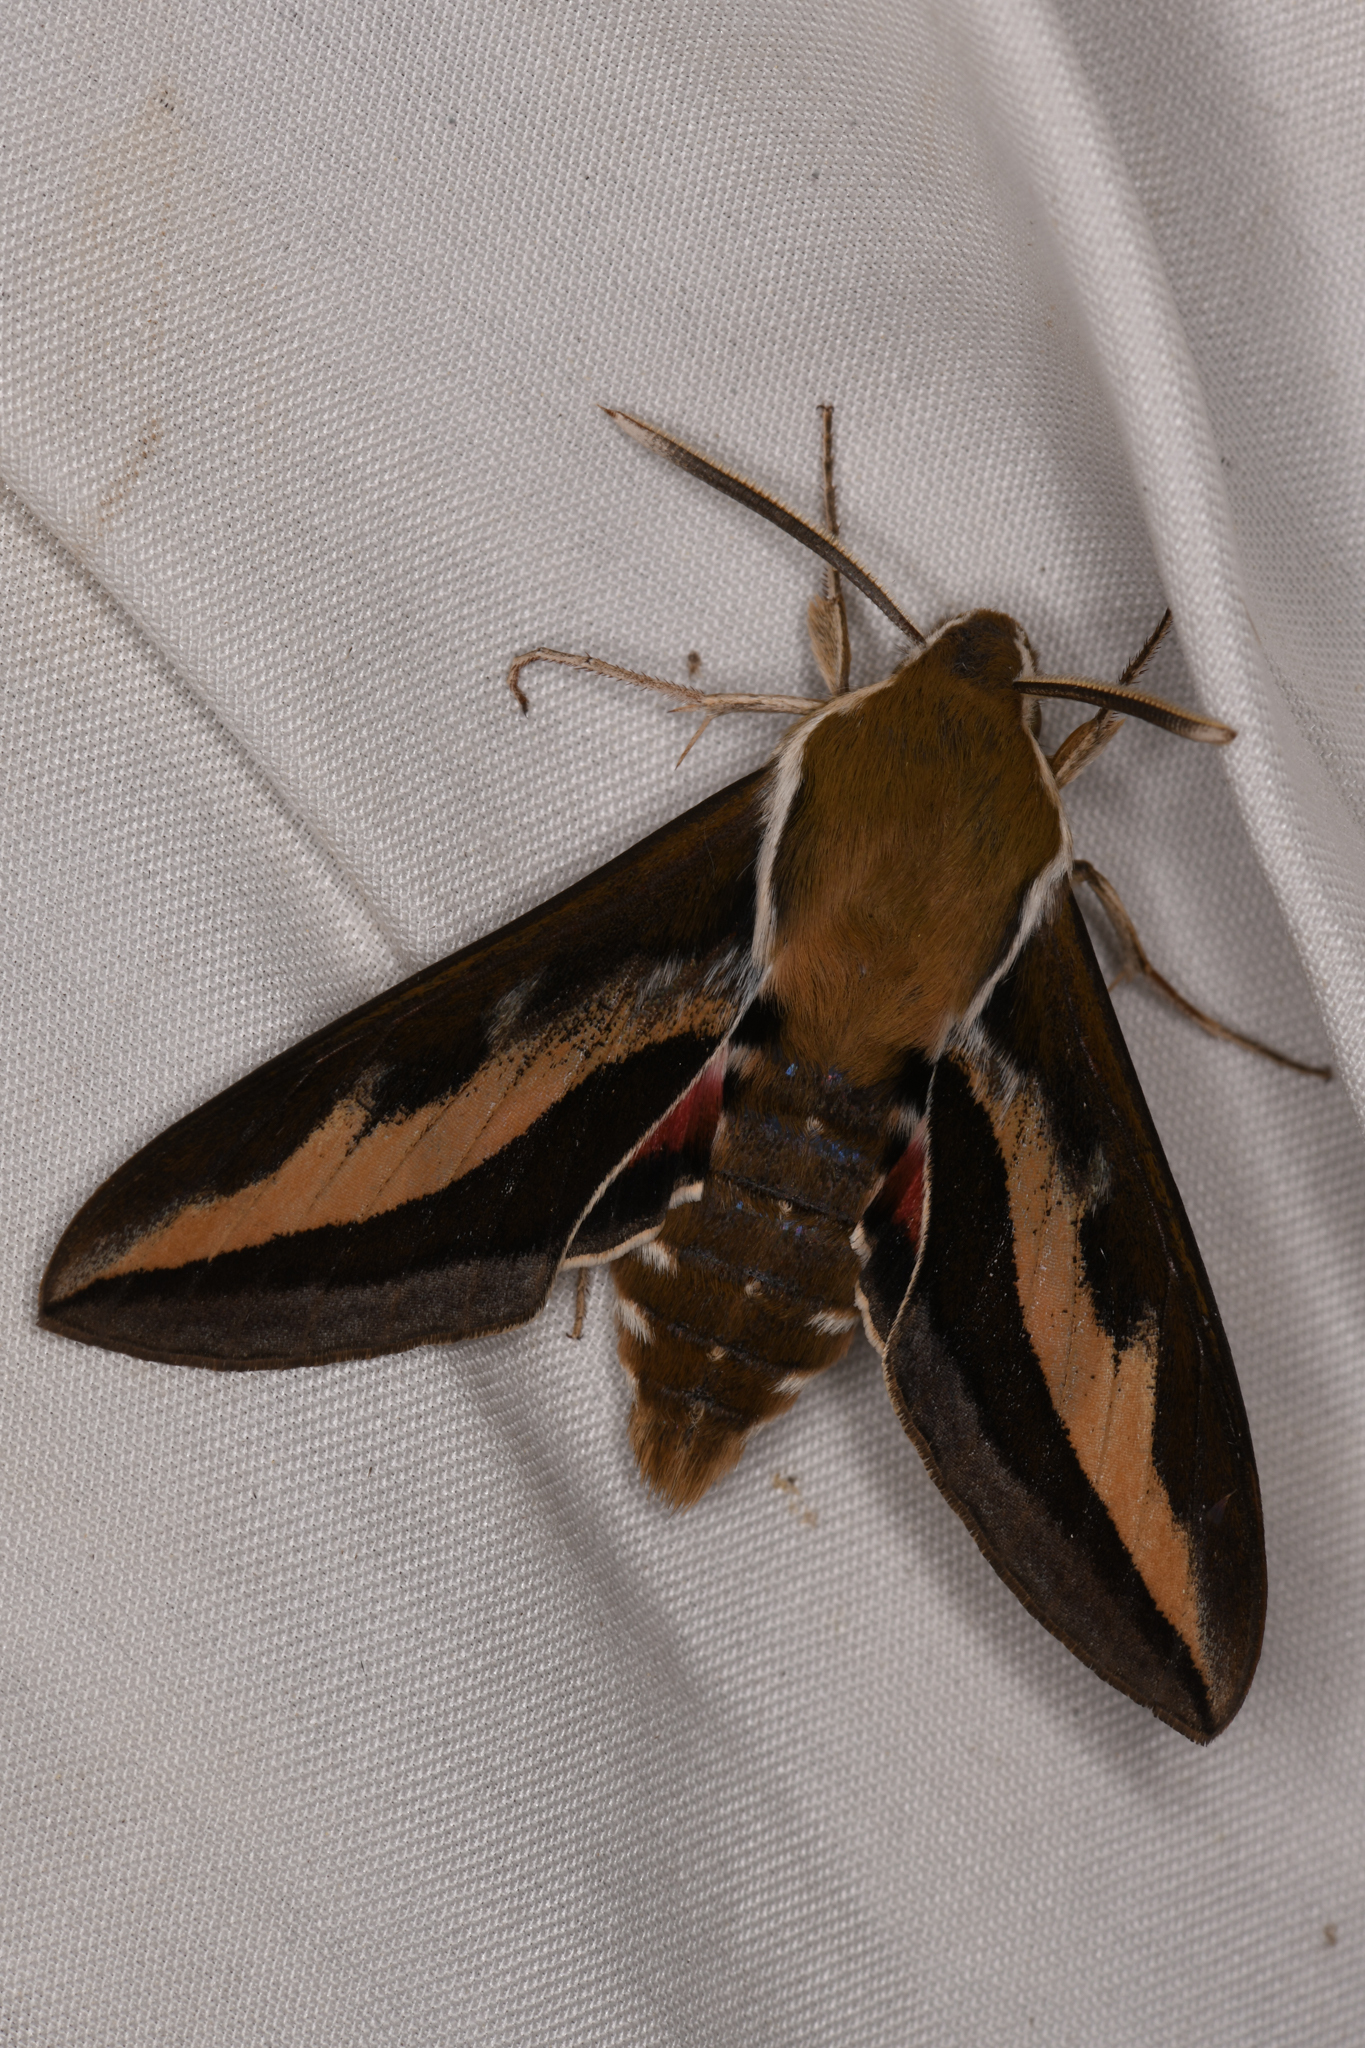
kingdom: Animalia
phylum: Arthropoda
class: Insecta
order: Lepidoptera
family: Sphingidae
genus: Hyles
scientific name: Hyles gallii
